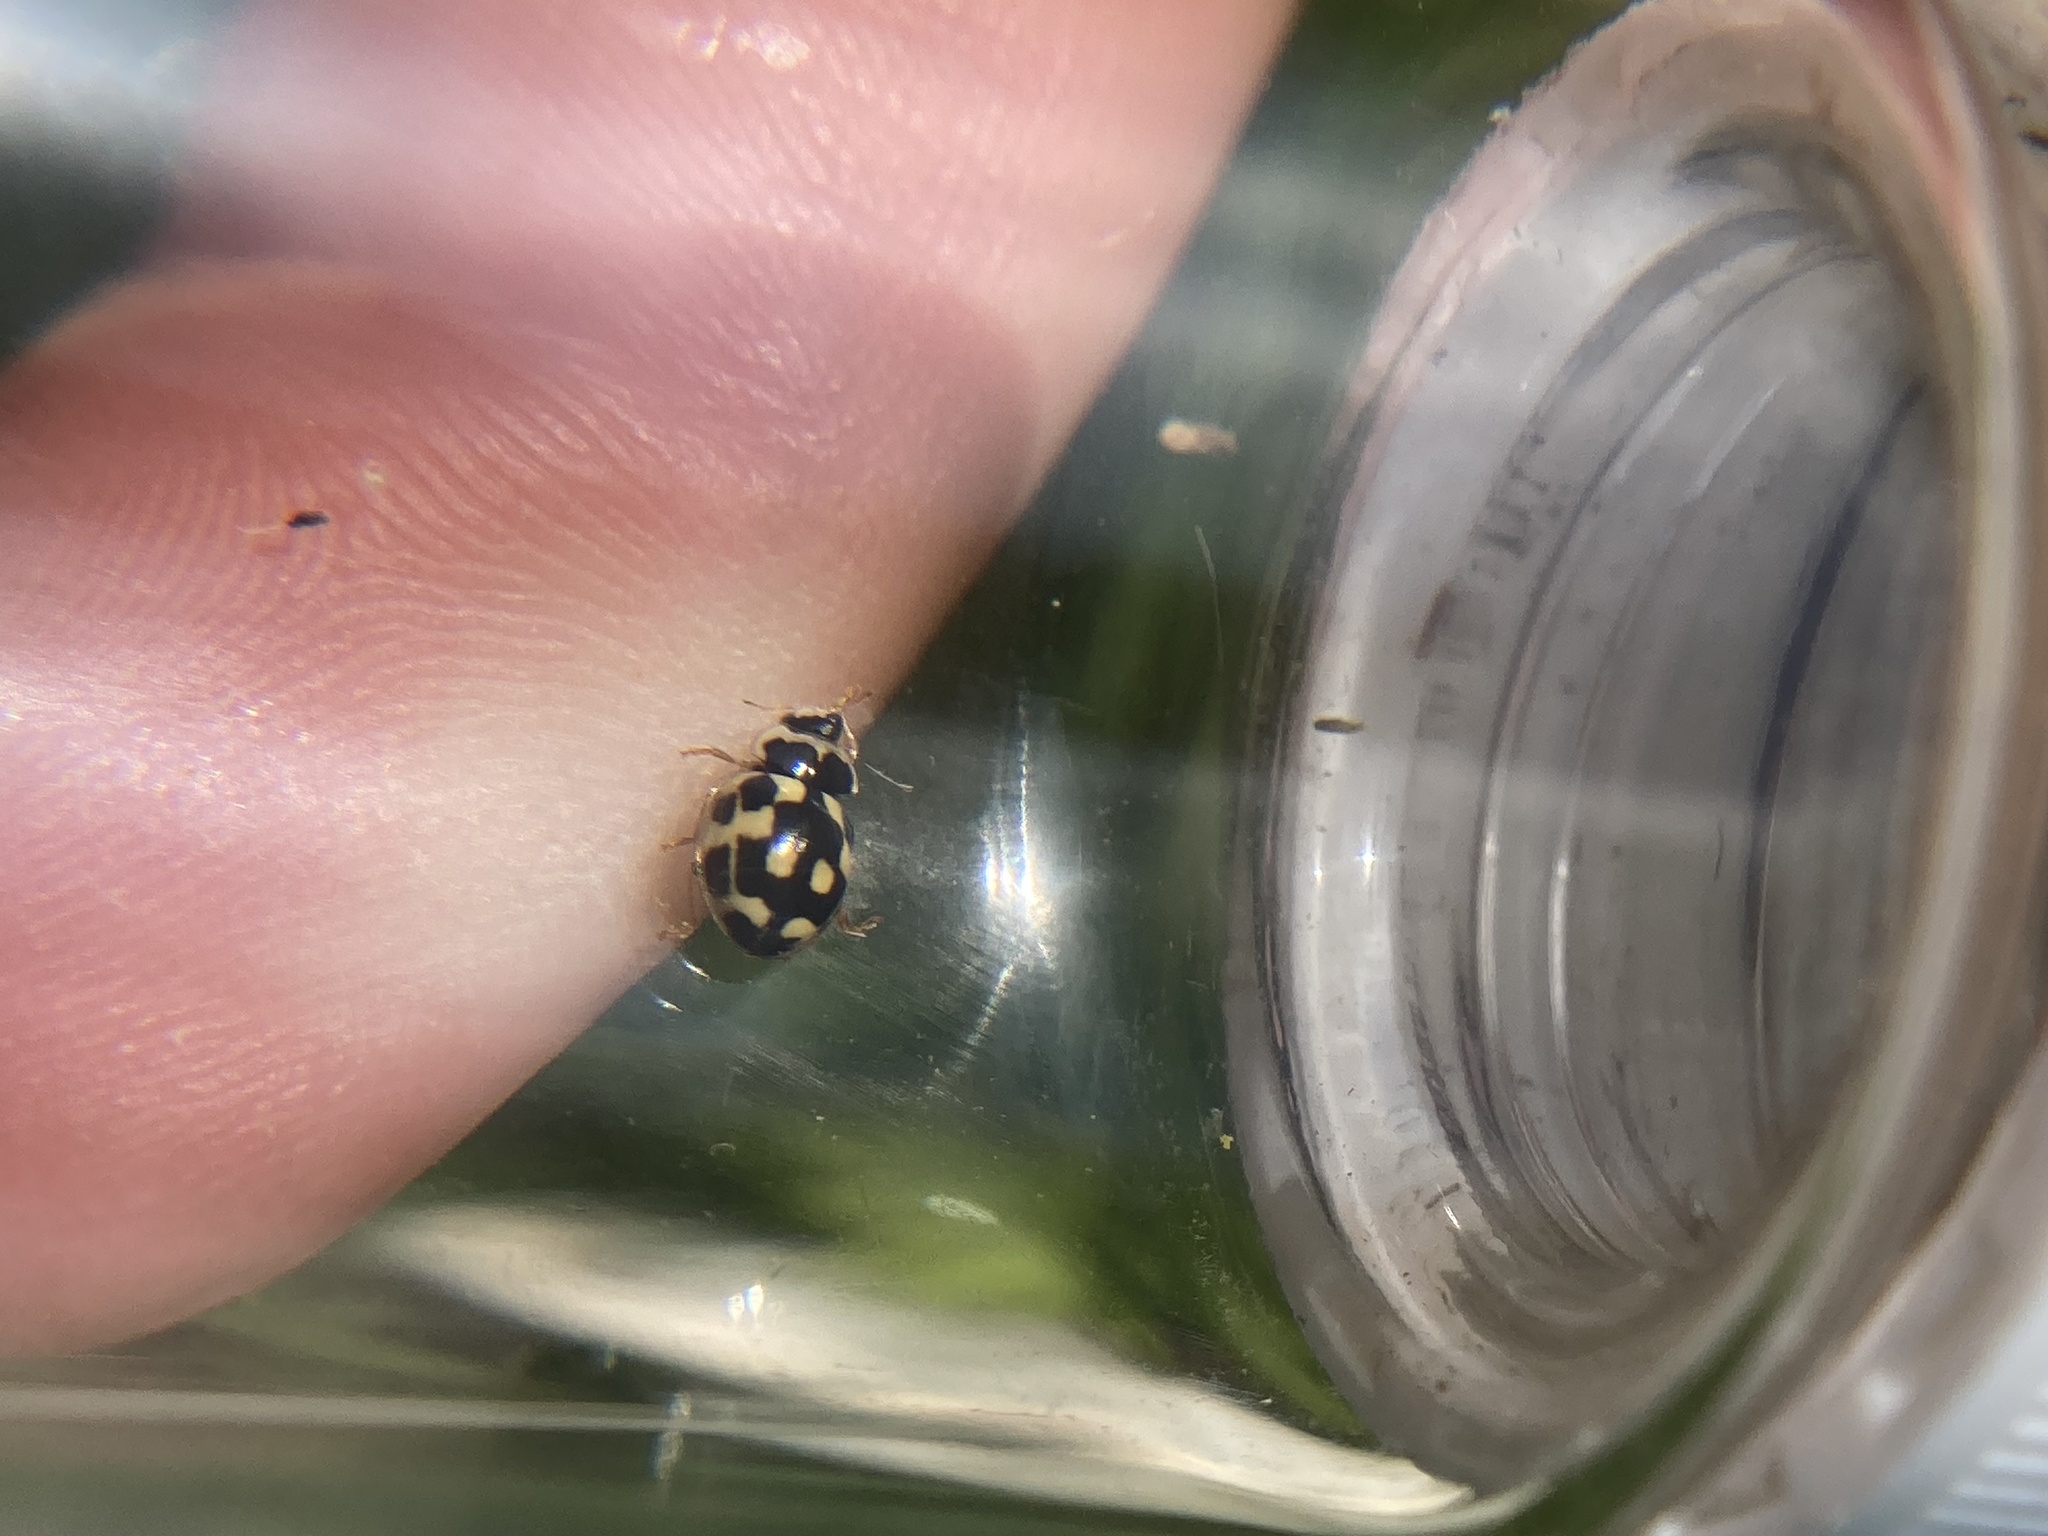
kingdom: Animalia
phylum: Arthropoda
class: Insecta
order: Coleoptera
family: Coccinellidae
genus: Propylaea
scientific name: Propylaea quatuordecimpunctata
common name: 14-spotted ladybird beetle
